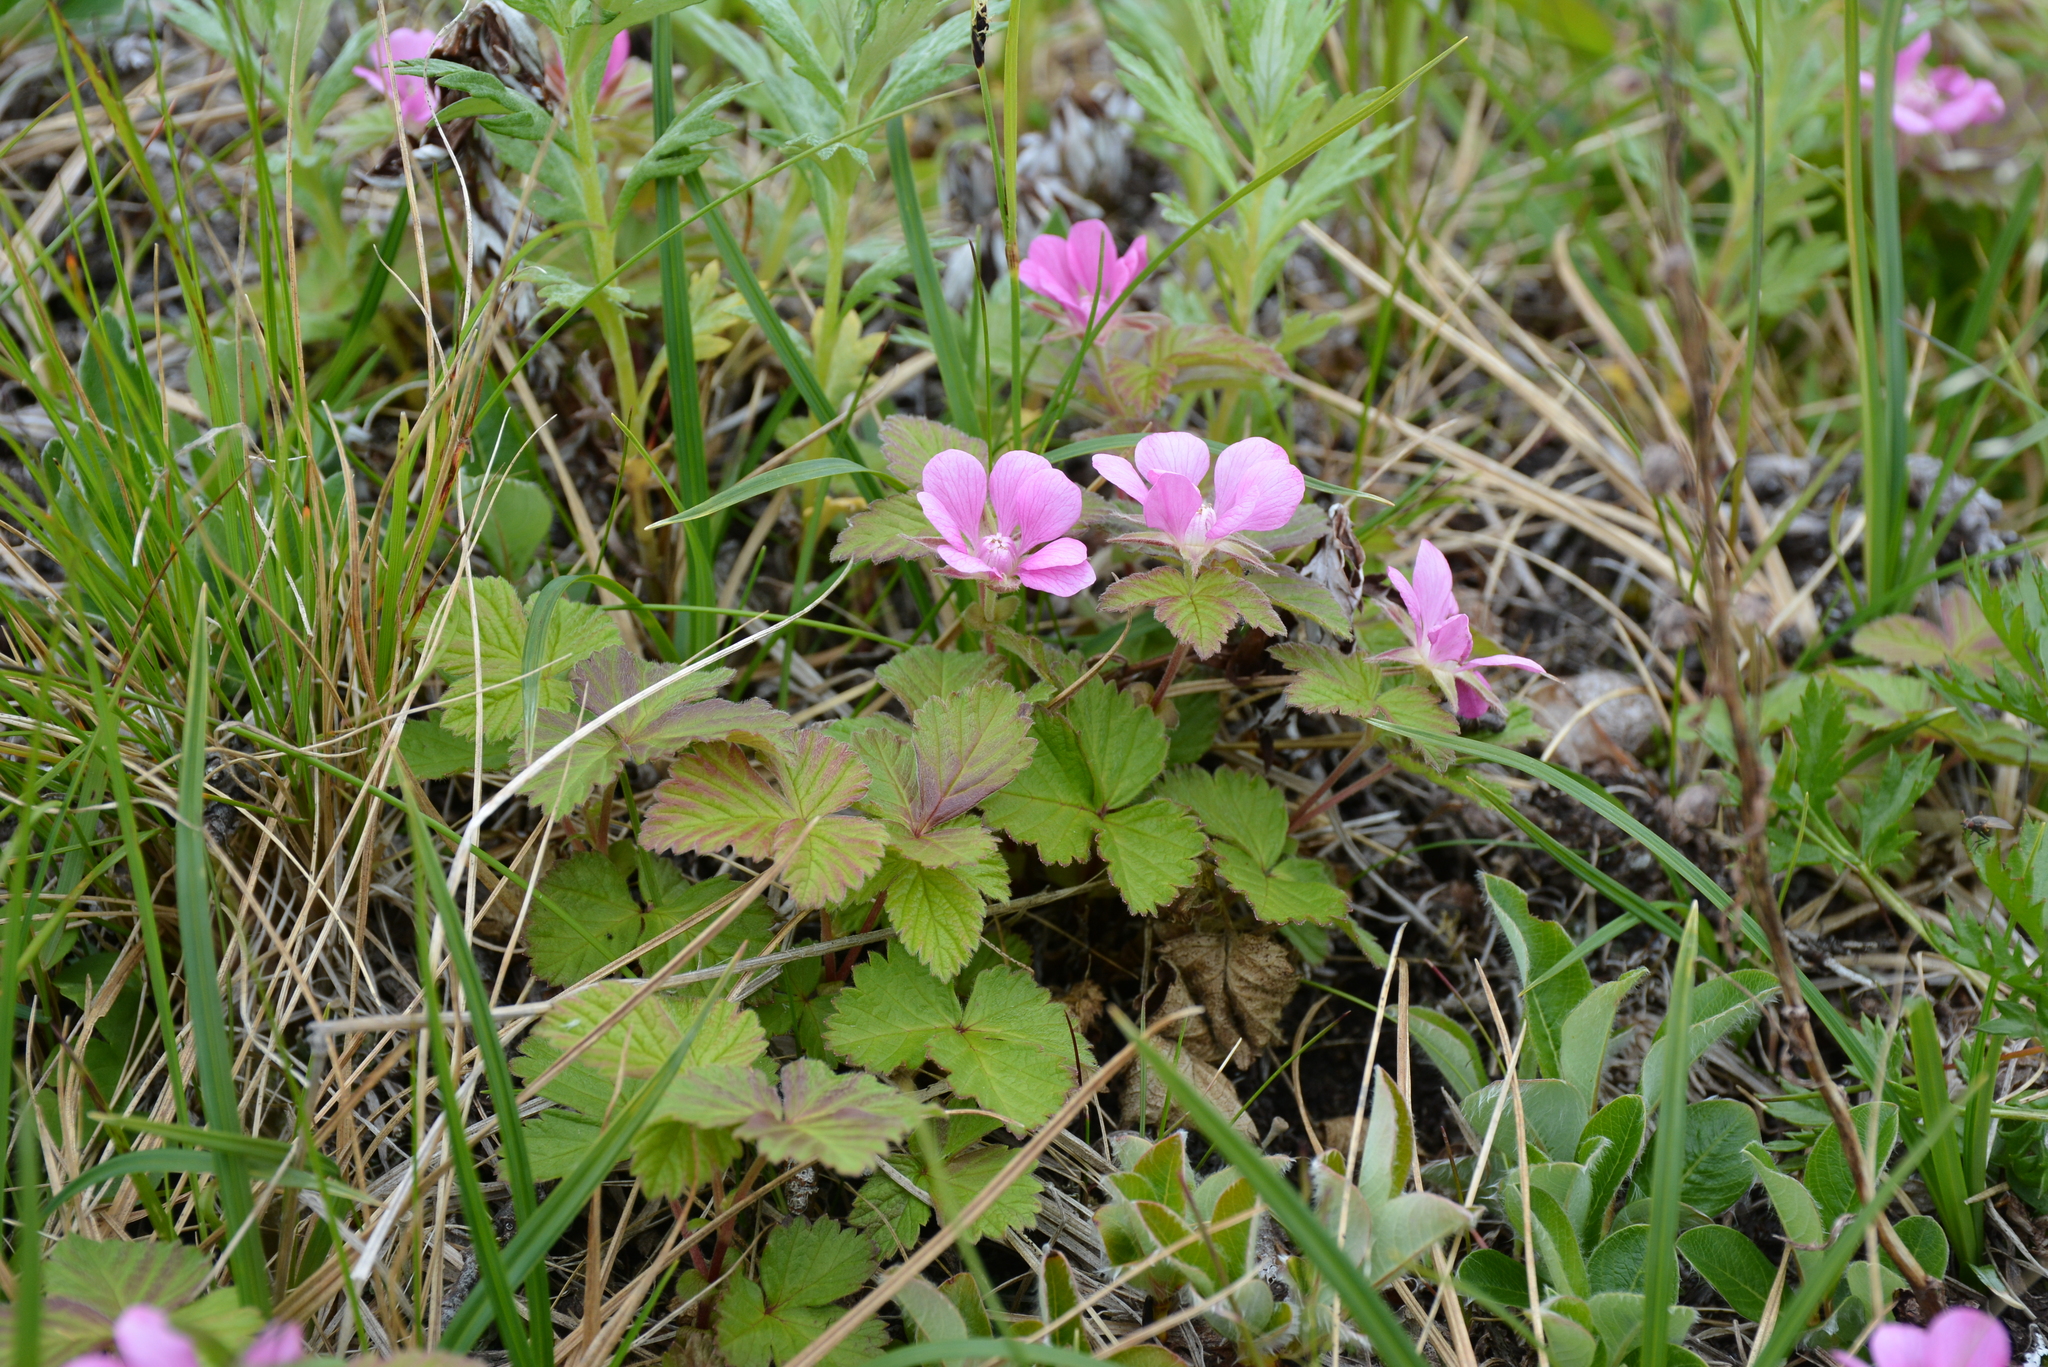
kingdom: Plantae
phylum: Tracheophyta
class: Magnoliopsida
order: Rosales
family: Rosaceae
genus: Rubus
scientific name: Rubus arcticus
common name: Arctic bramble
